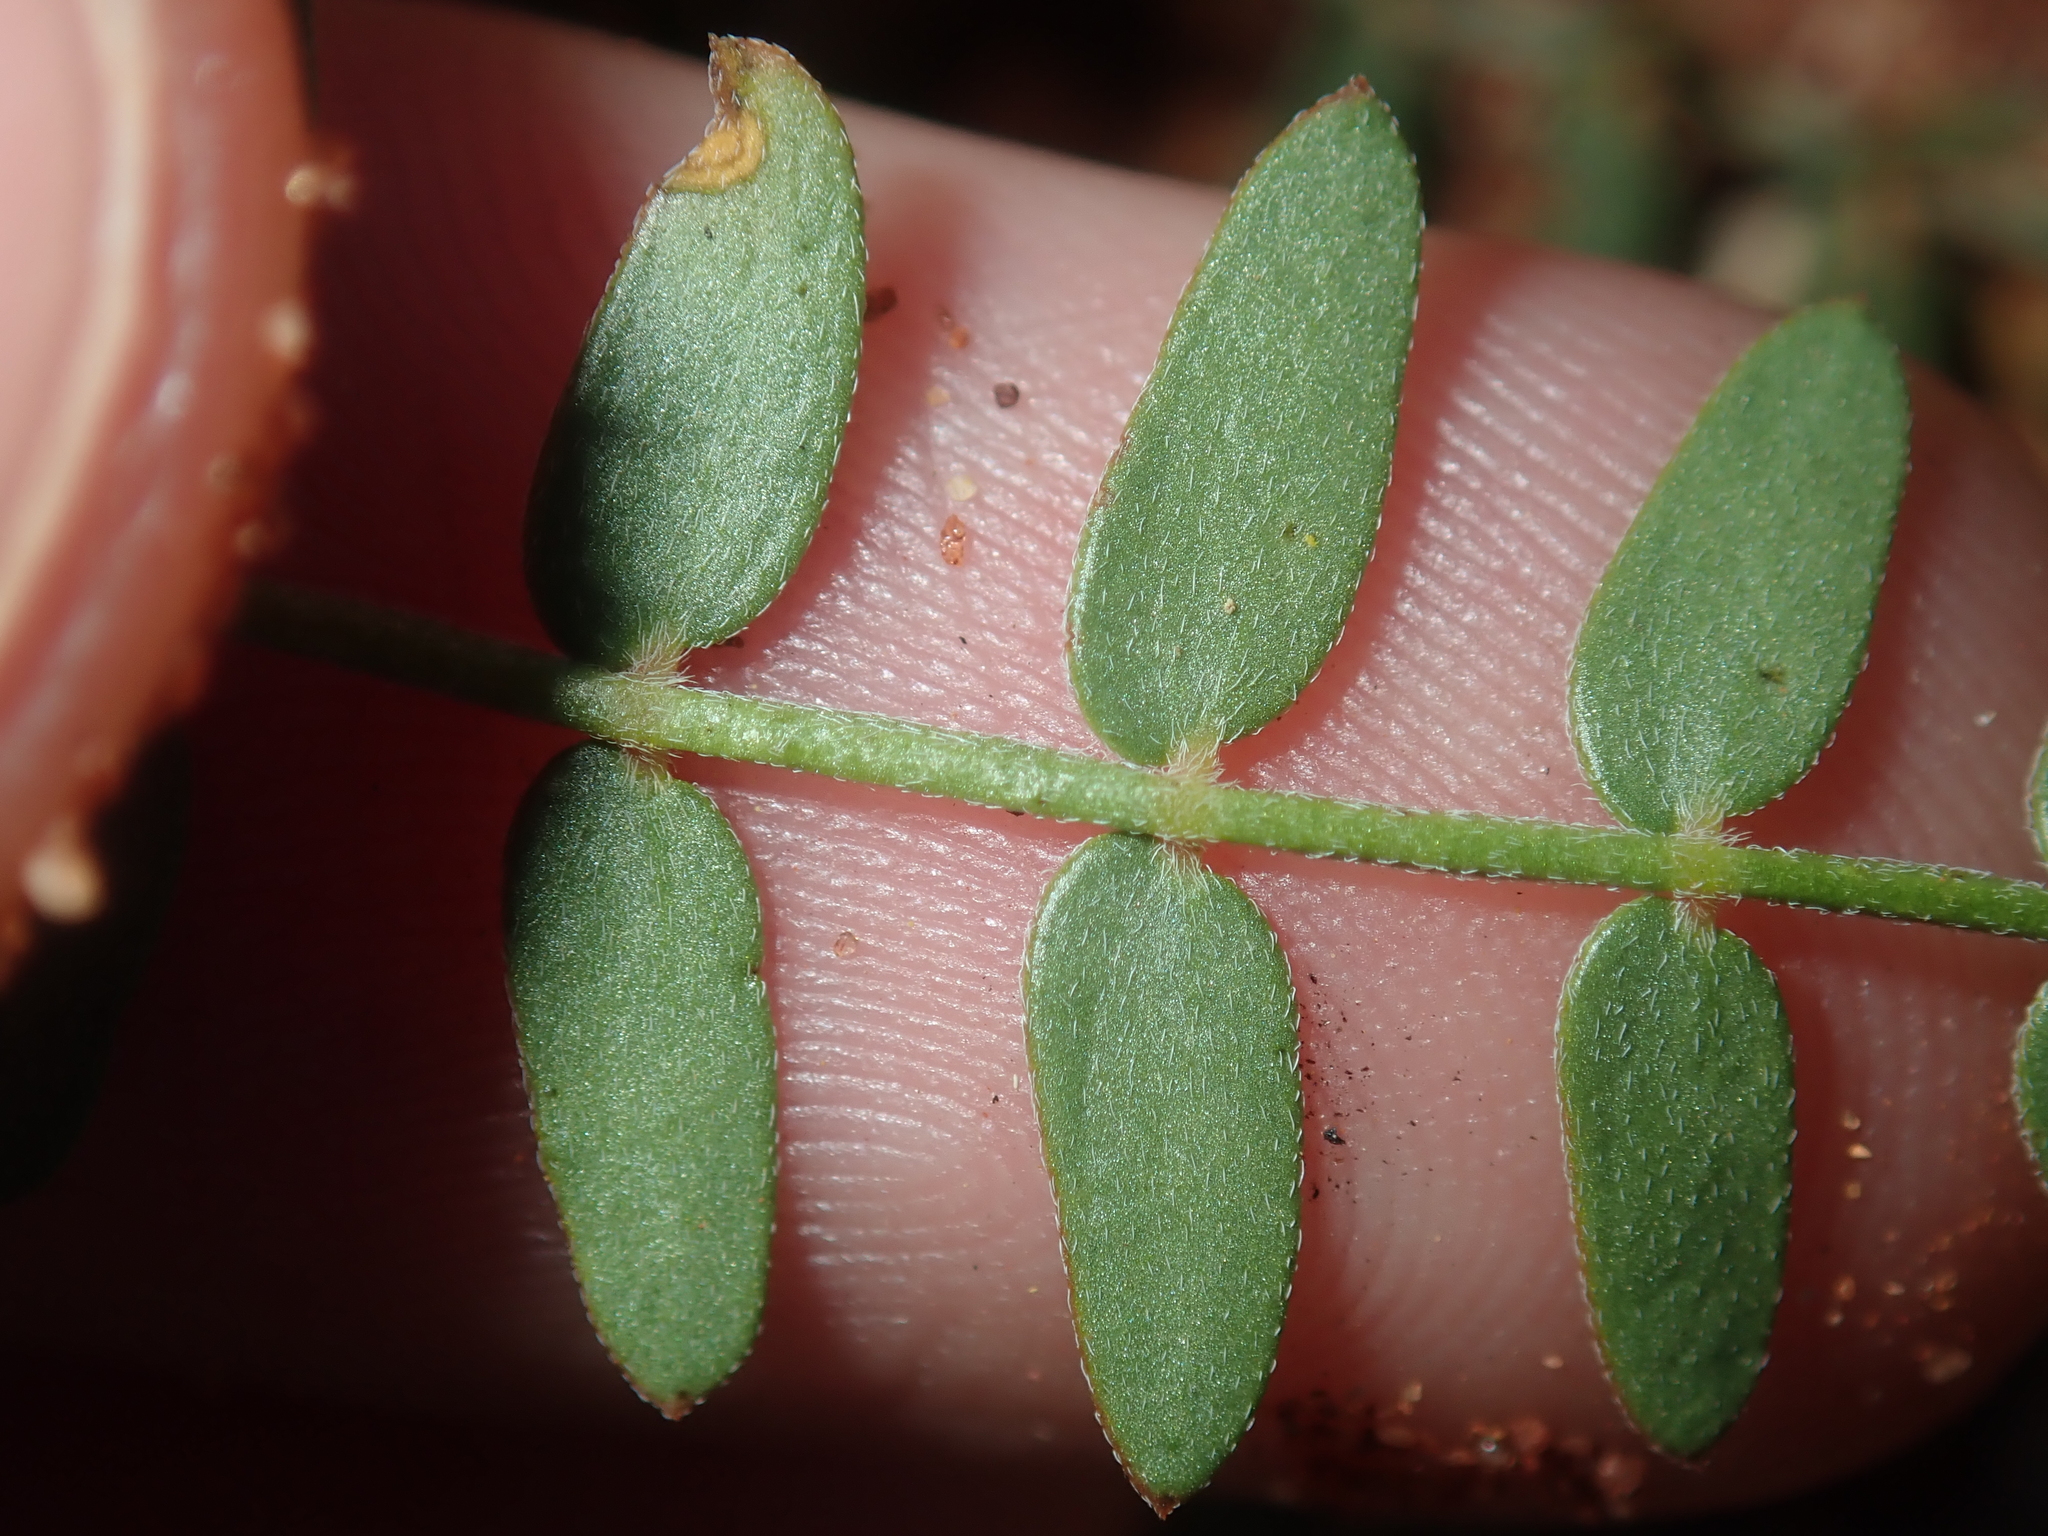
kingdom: Plantae
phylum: Tracheophyta
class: Magnoliopsida
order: Zygophyllales
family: Zygophyllaceae
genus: Tribulus
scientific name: Tribulus forrestii
